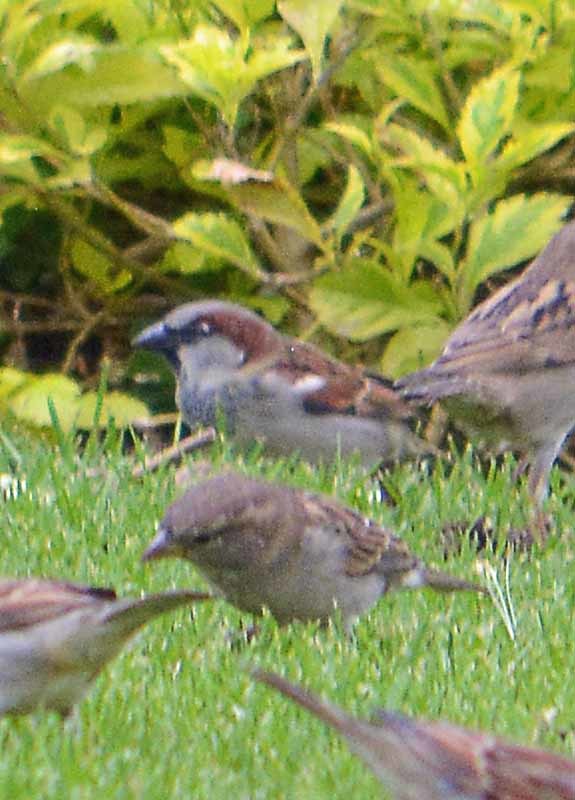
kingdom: Animalia
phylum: Chordata
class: Aves
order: Passeriformes
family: Passeridae
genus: Passer
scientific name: Passer domesticus
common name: House sparrow
